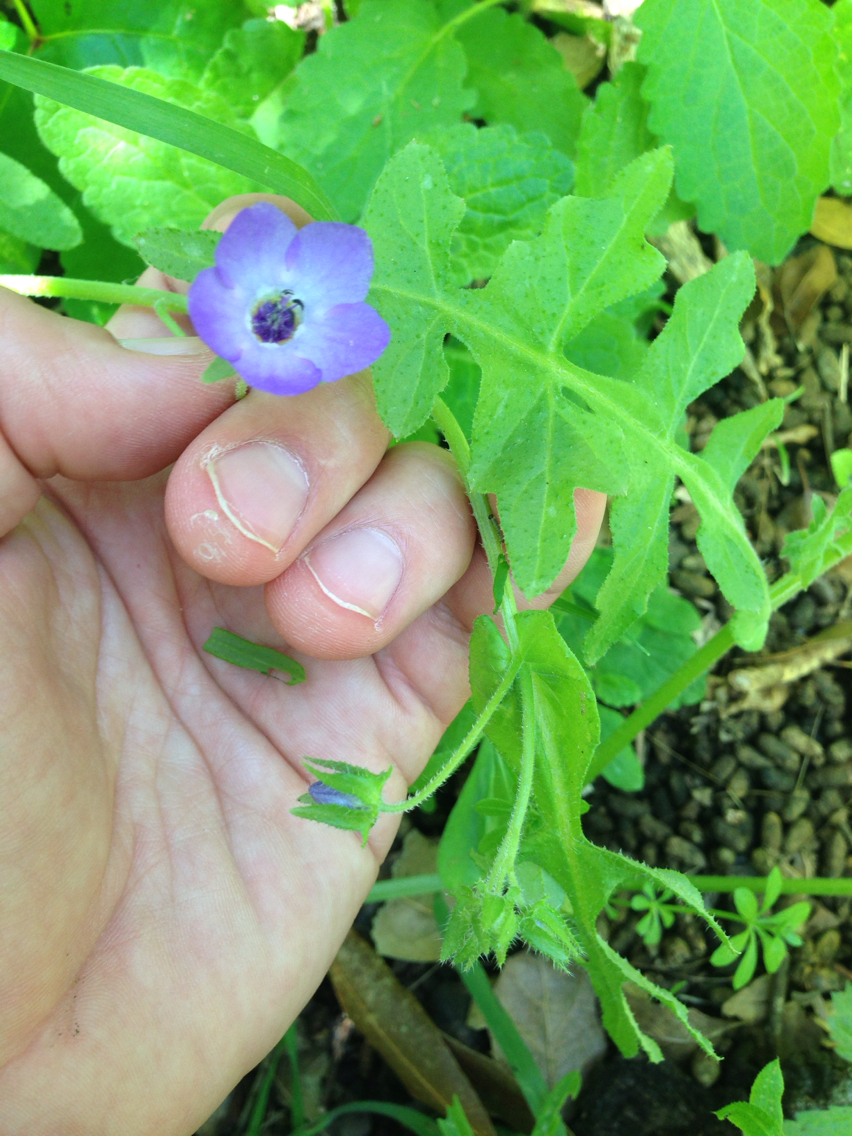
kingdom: Plantae
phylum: Tracheophyta
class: Magnoliopsida
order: Boraginales
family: Hydrophyllaceae
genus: Pholistoma
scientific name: Pholistoma auritum
